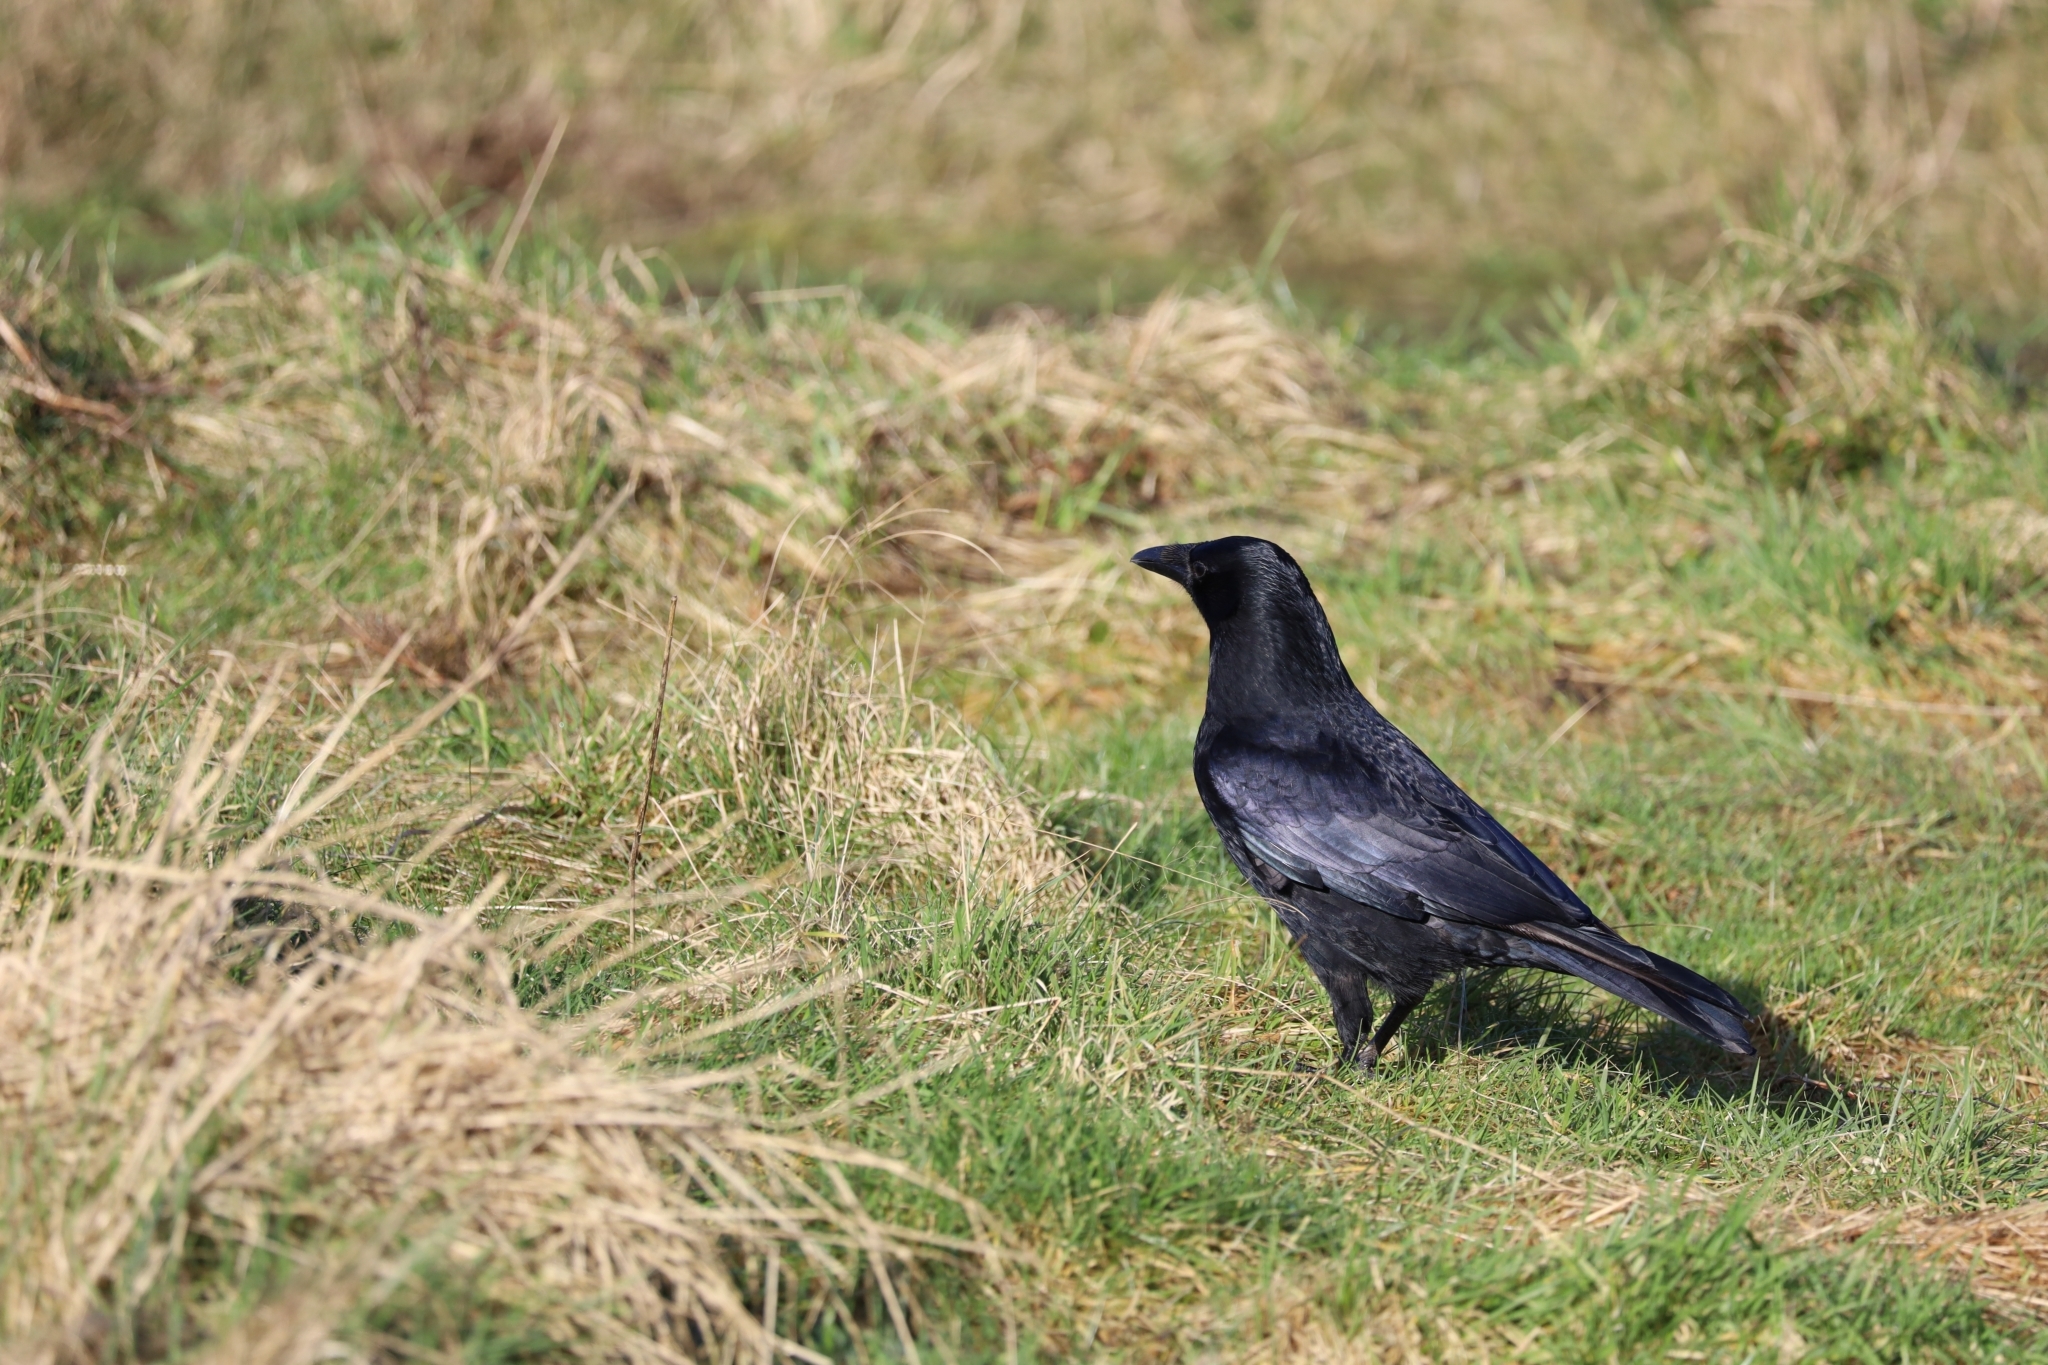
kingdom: Animalia
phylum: Chordata
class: Aves
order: Passeriformes
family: Corvidae
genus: Corvus
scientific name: Corvus corone
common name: Carrion crow
